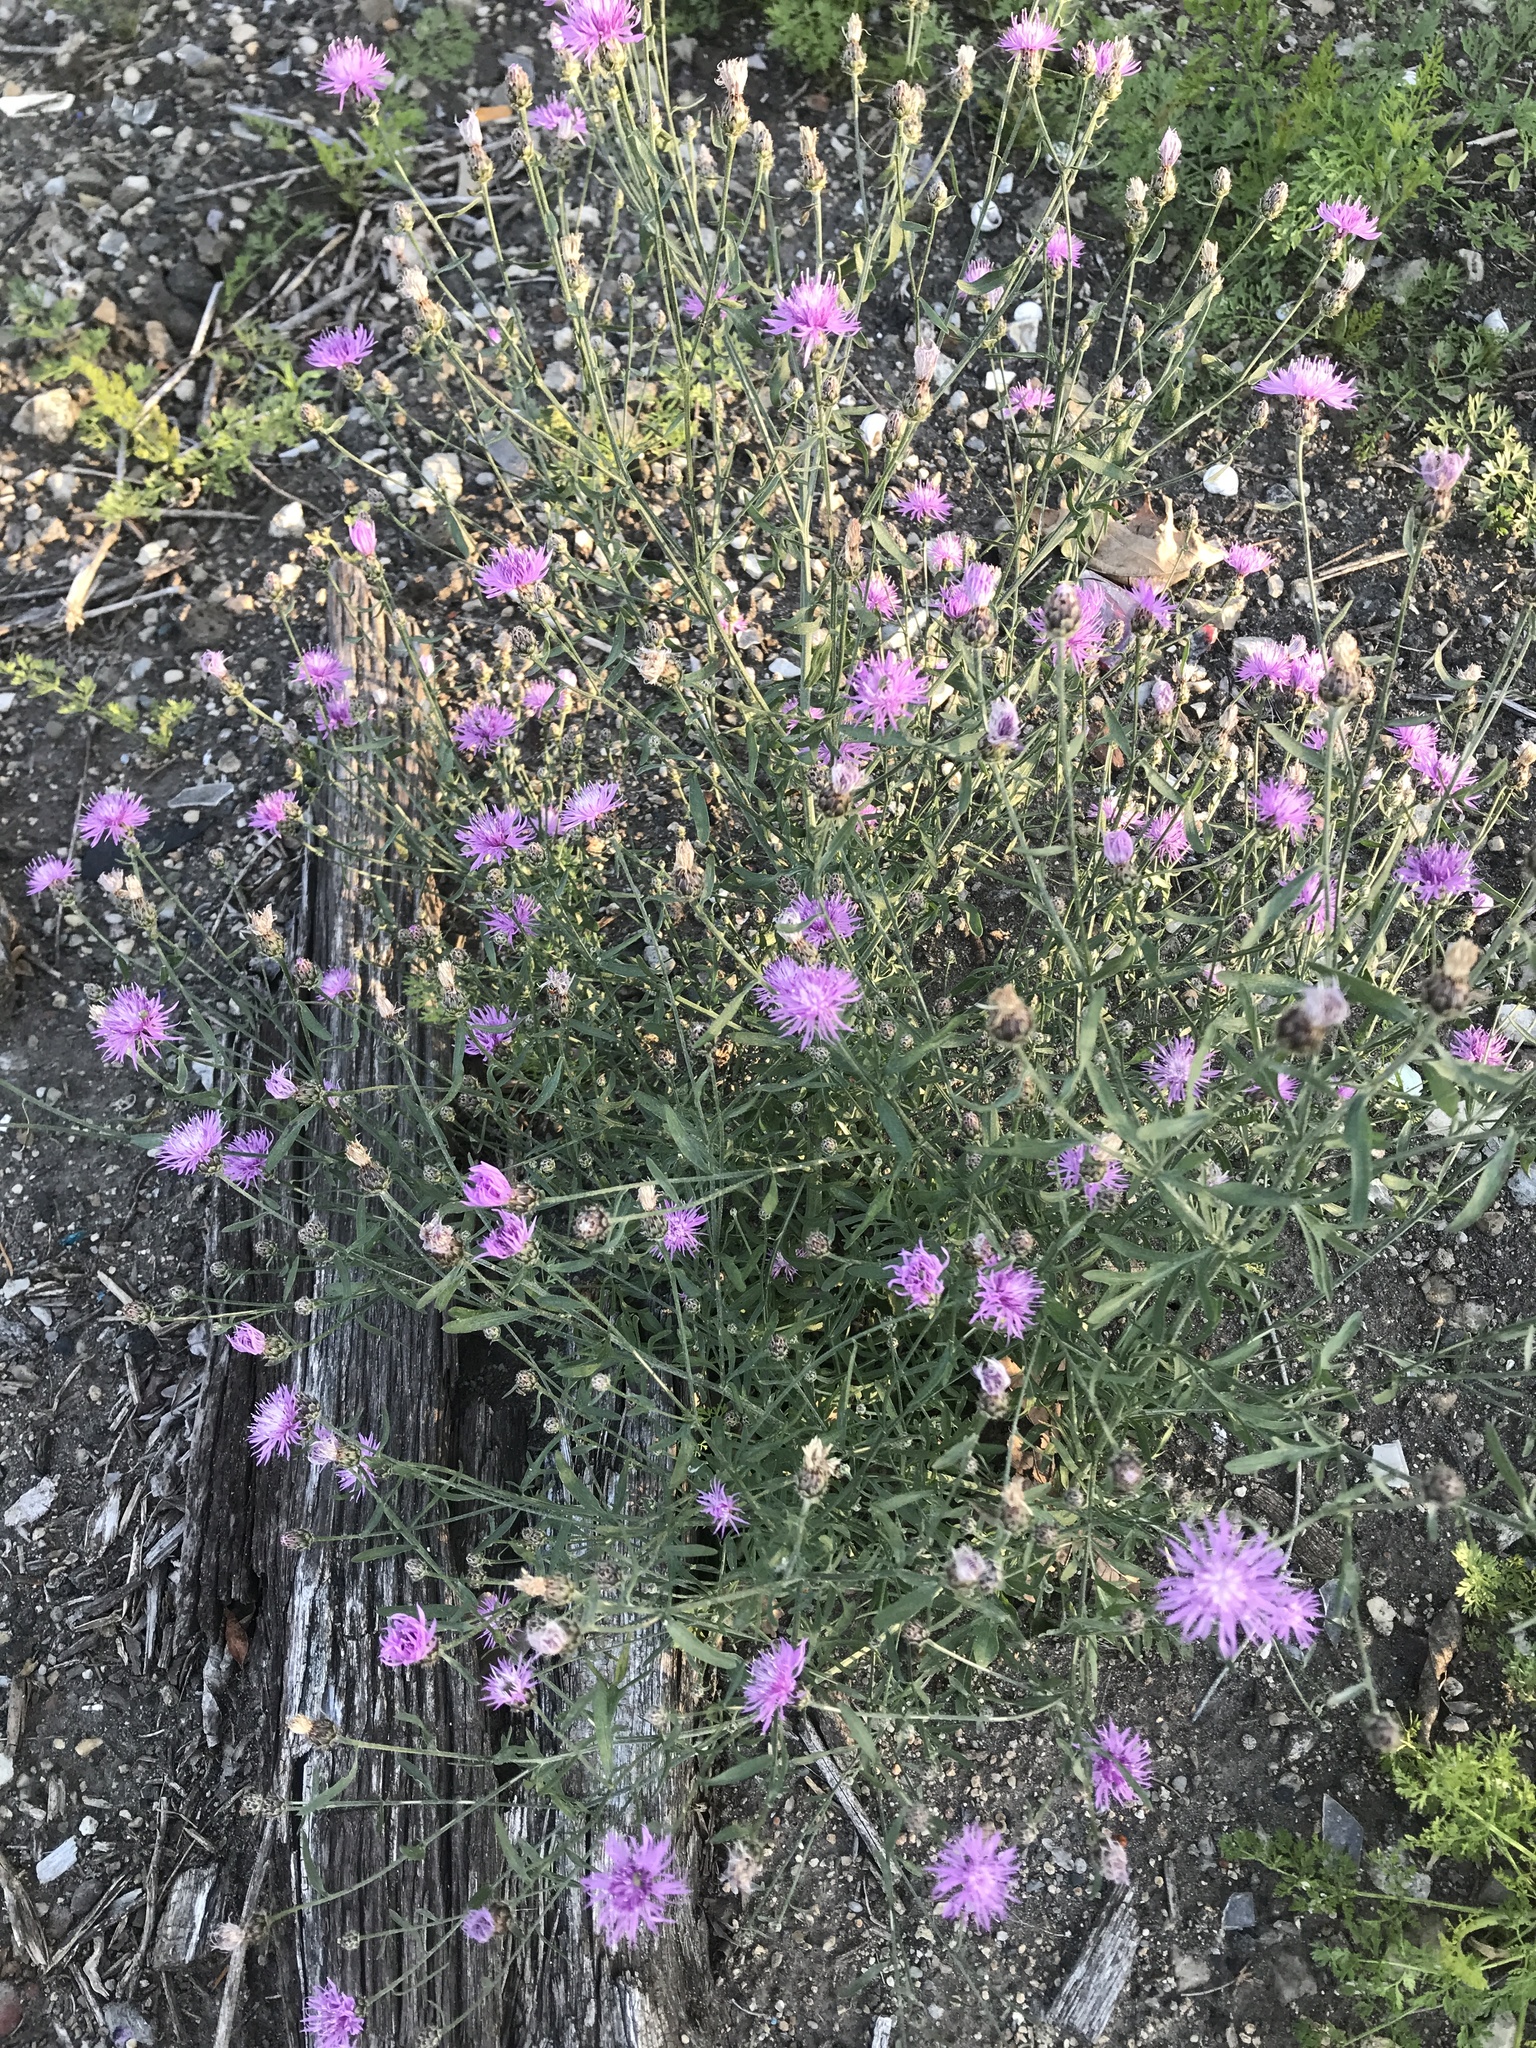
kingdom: Plantae
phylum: Tracheophyta
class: Magnoliopsida
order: Asterales
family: Asteraceae
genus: Centaurea
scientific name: Centaurea stoebe
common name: Spotted knapweed
